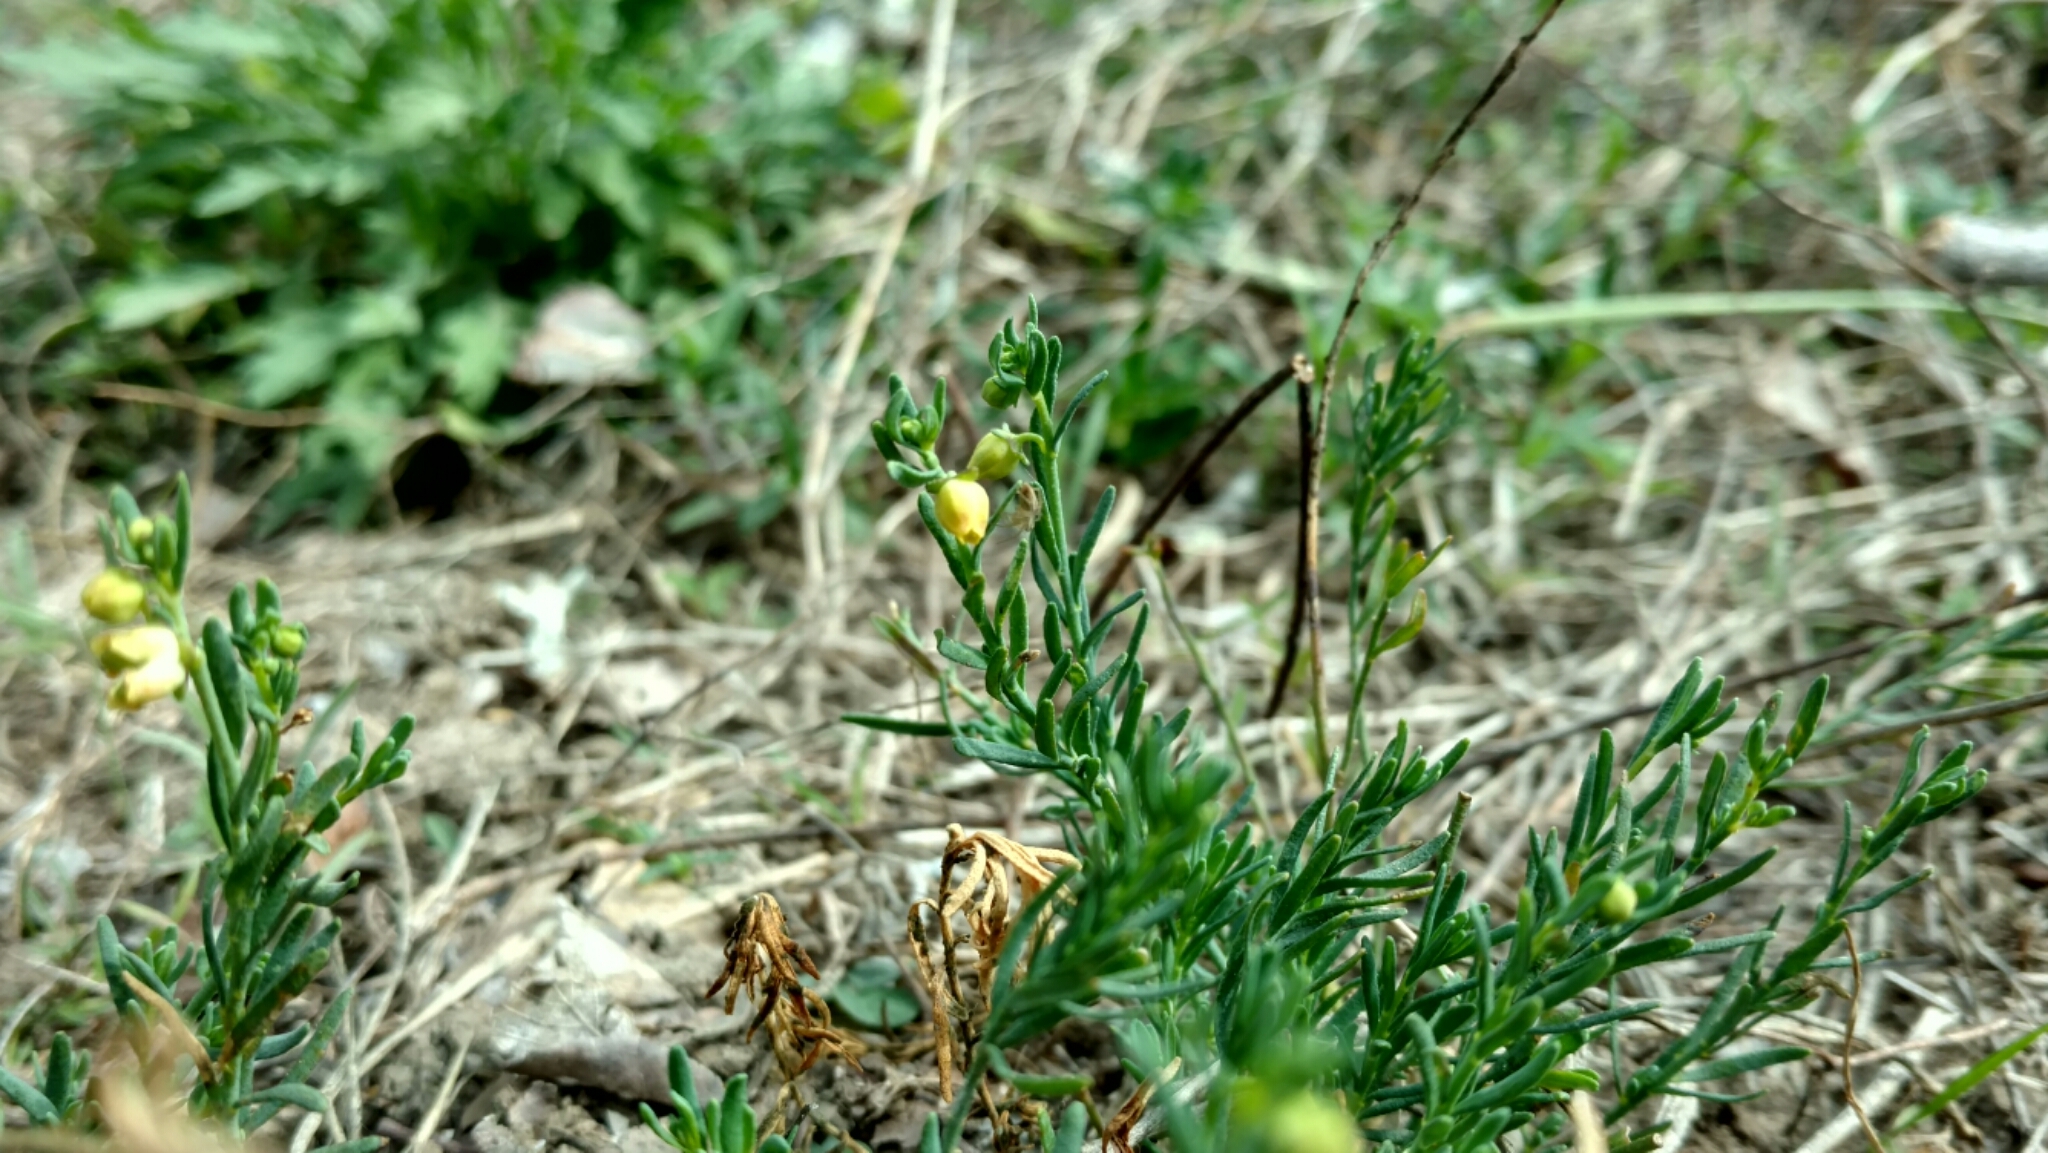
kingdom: Plantae
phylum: Tracheophyta
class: Magnoliopsida
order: Sapindales
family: Rutaceae
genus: Thamnosma
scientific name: Thamnosma texana
